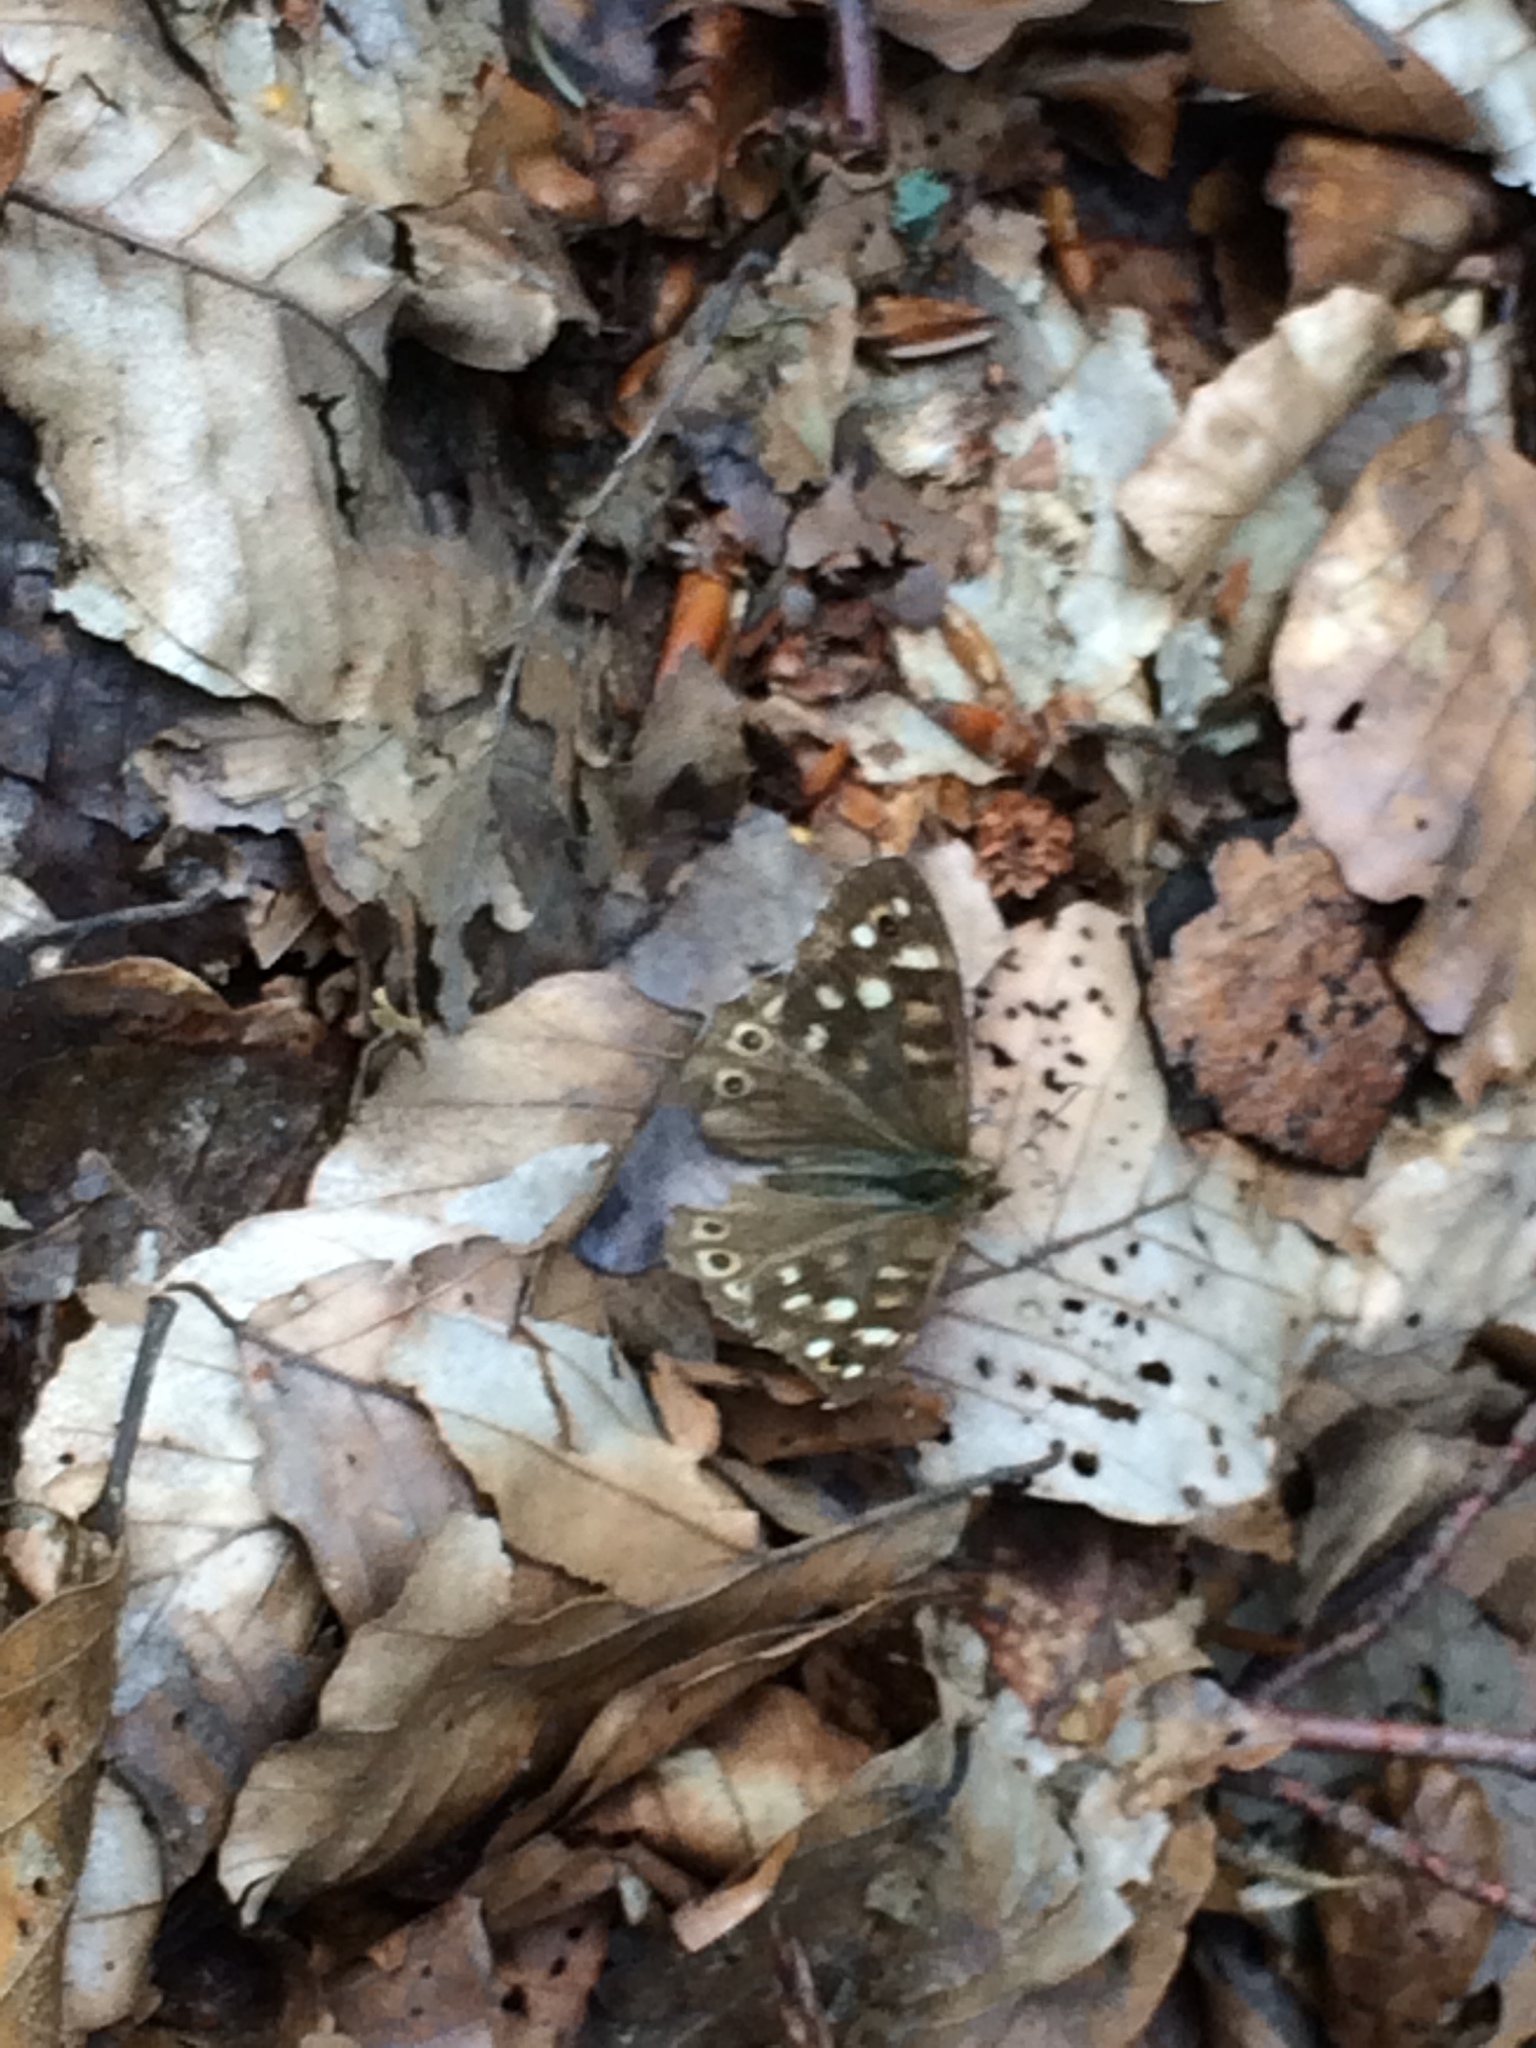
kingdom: Animalia
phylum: Arthropoda
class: Insecta
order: Lepidoptera
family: Nymphalidae
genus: Pararge
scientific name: Pararge aegeria
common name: Speckled wood
